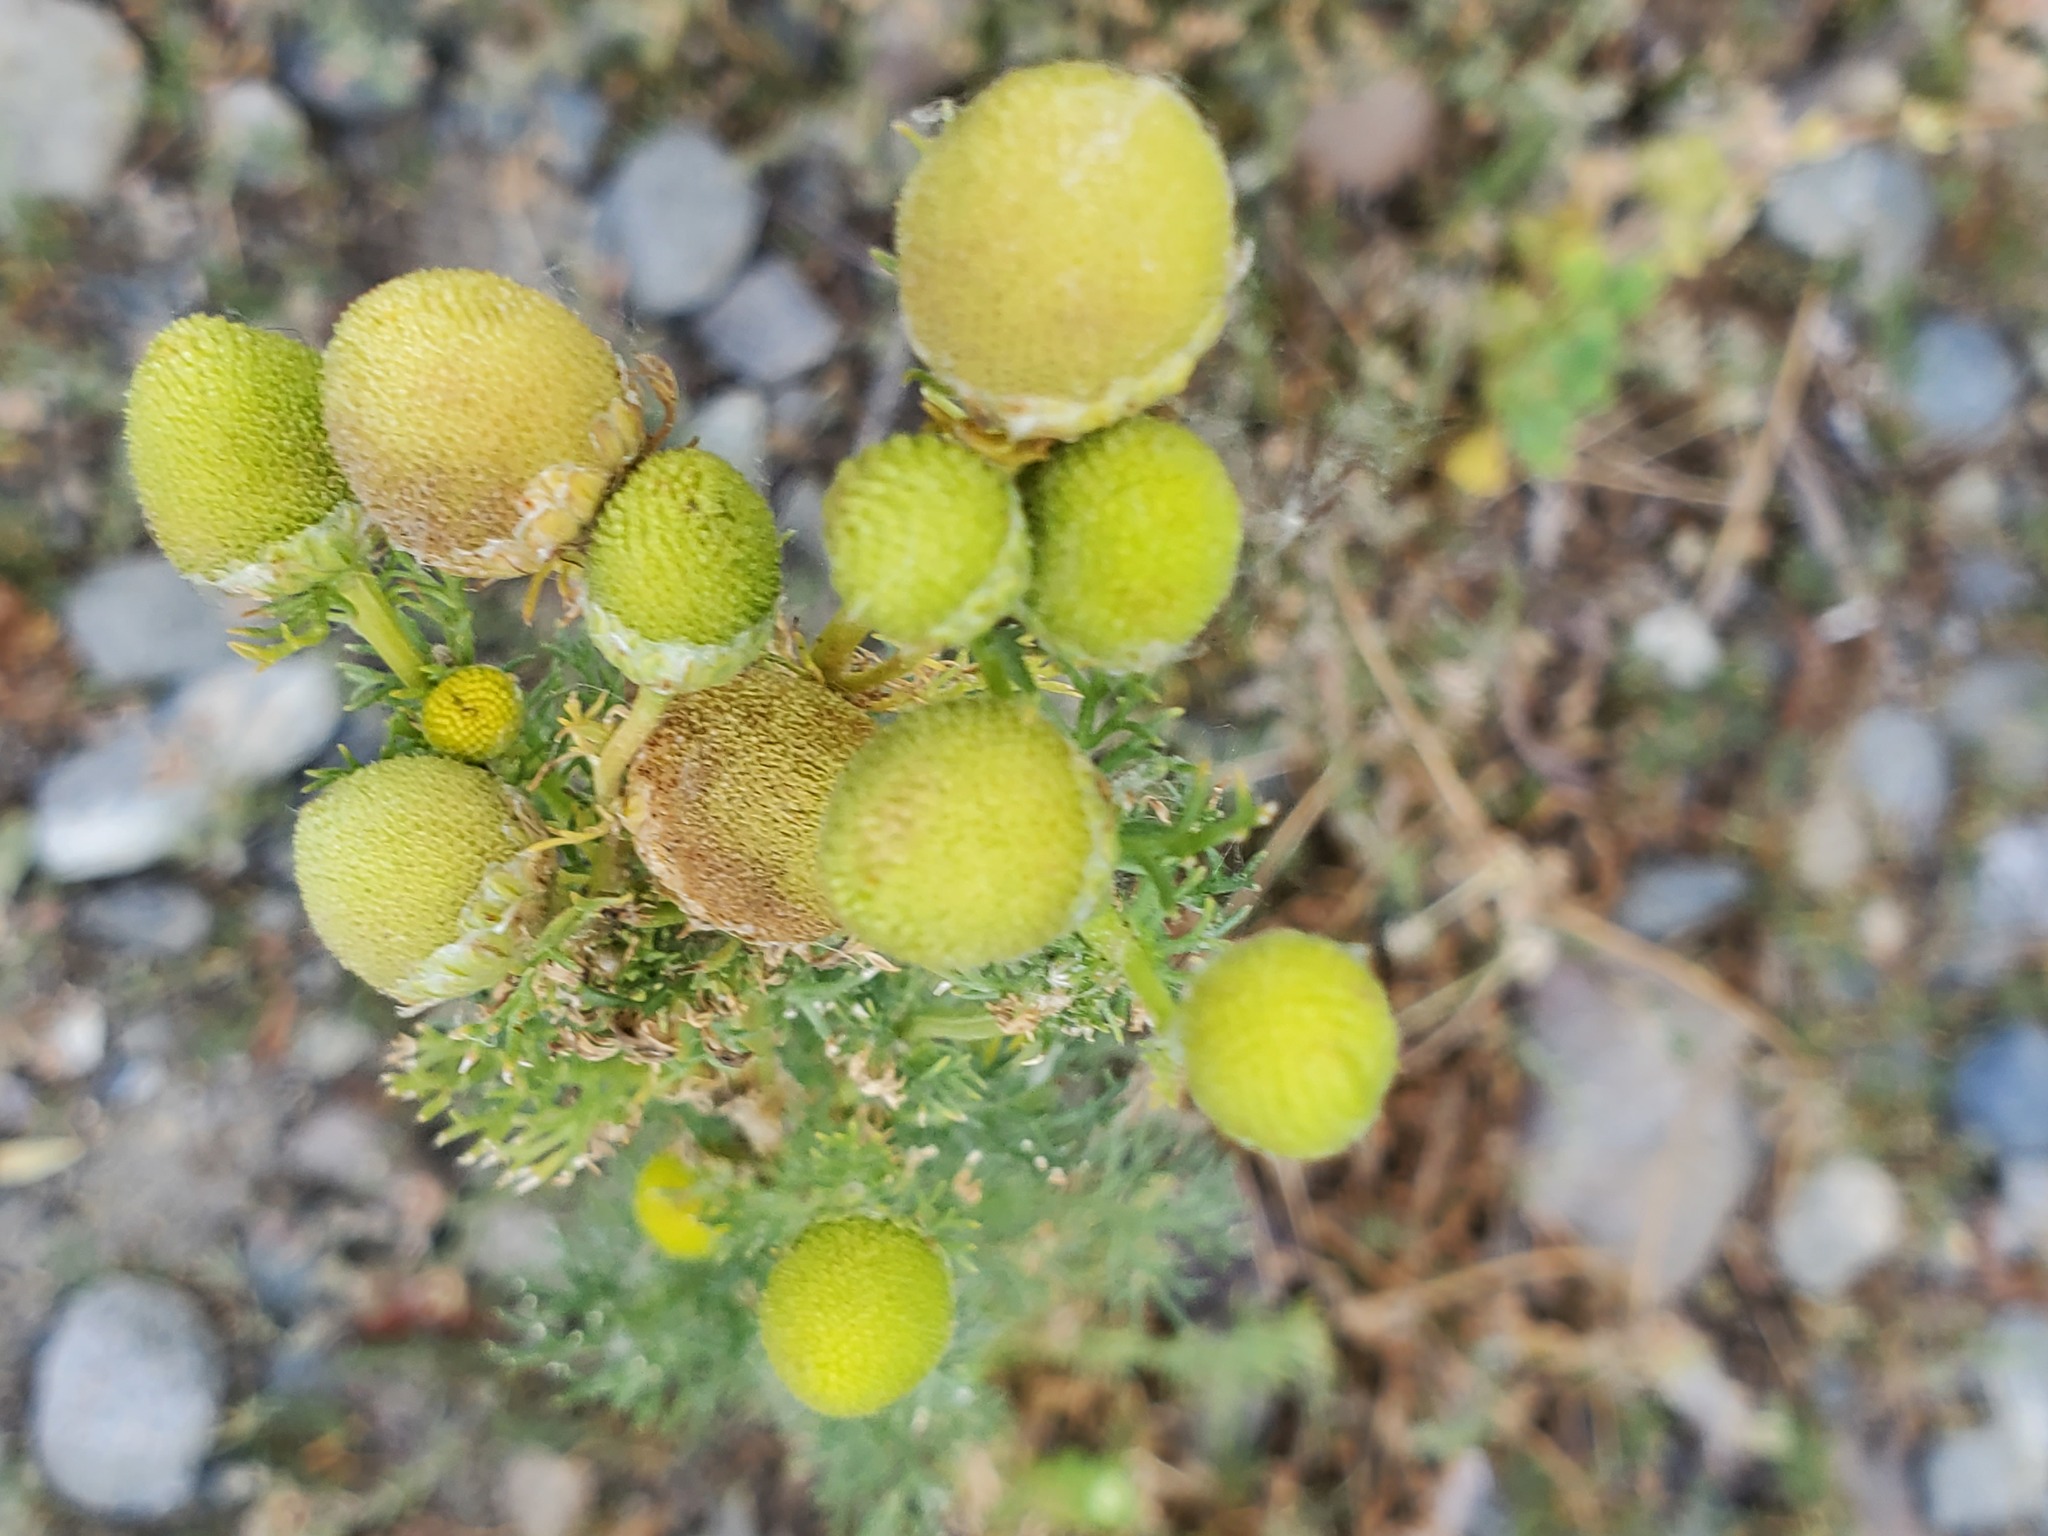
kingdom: Plantae
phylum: Tracheophyta
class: Magnoliopsida
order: Asterales
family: Asteraceae
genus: Matricaria
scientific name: Matricaria discoidea
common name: Disc mayweed
